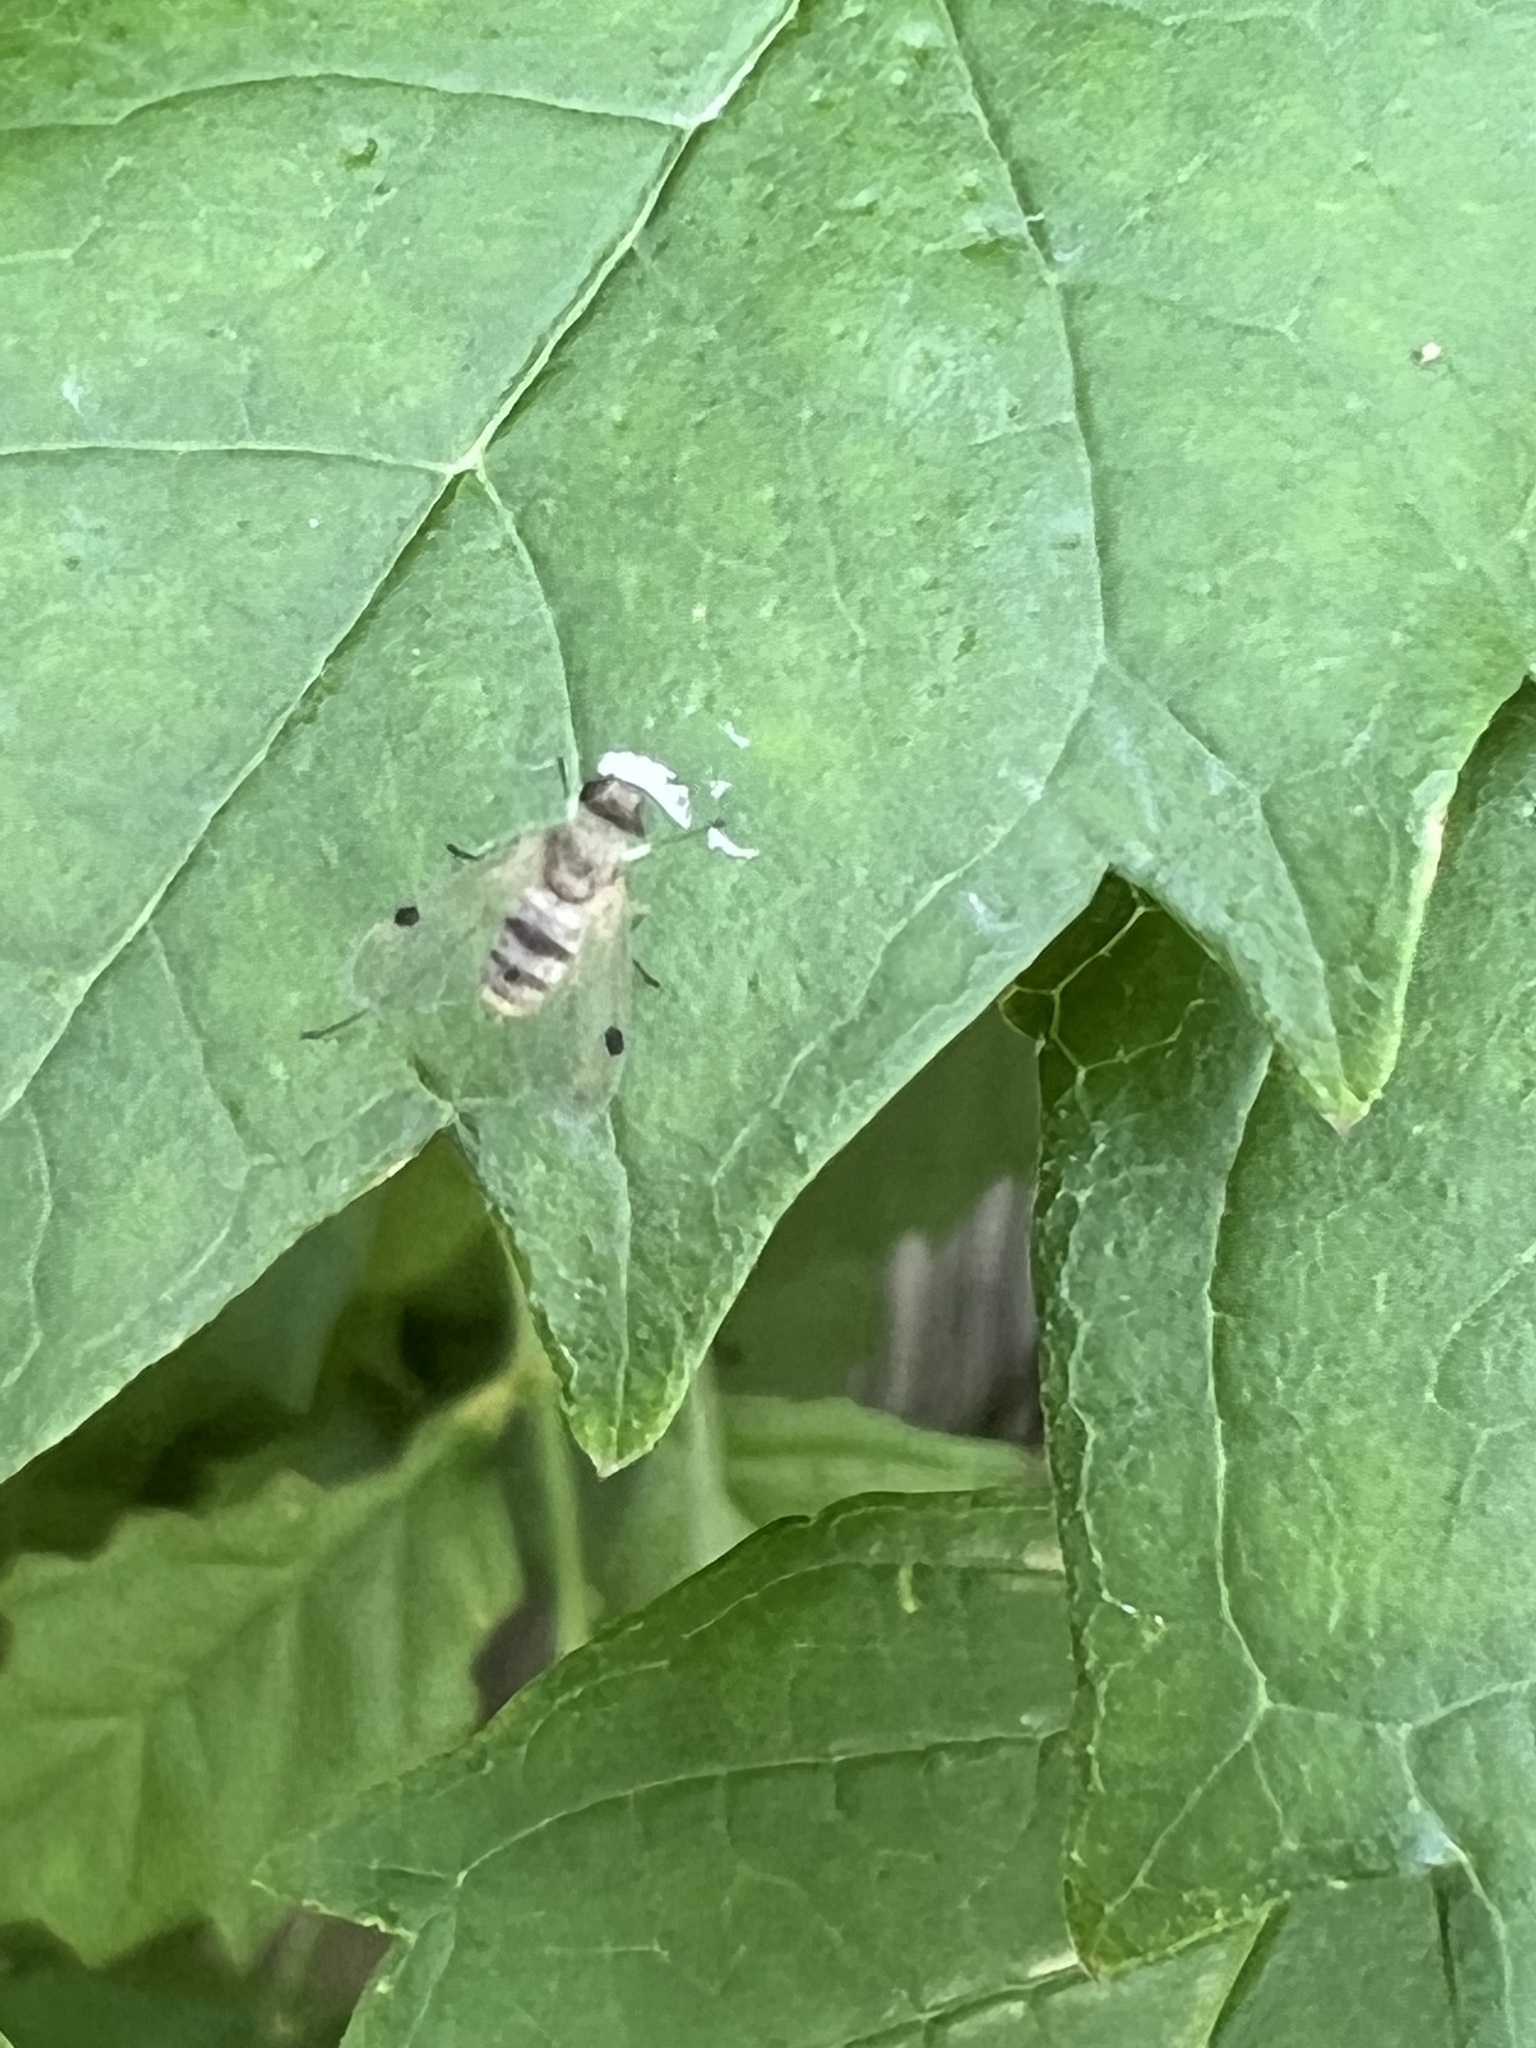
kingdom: Animalia
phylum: Arthropoda
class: Insecta
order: Diptera
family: Rhagionidae
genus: Chrysopilus
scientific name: Chrysopilus modestus
